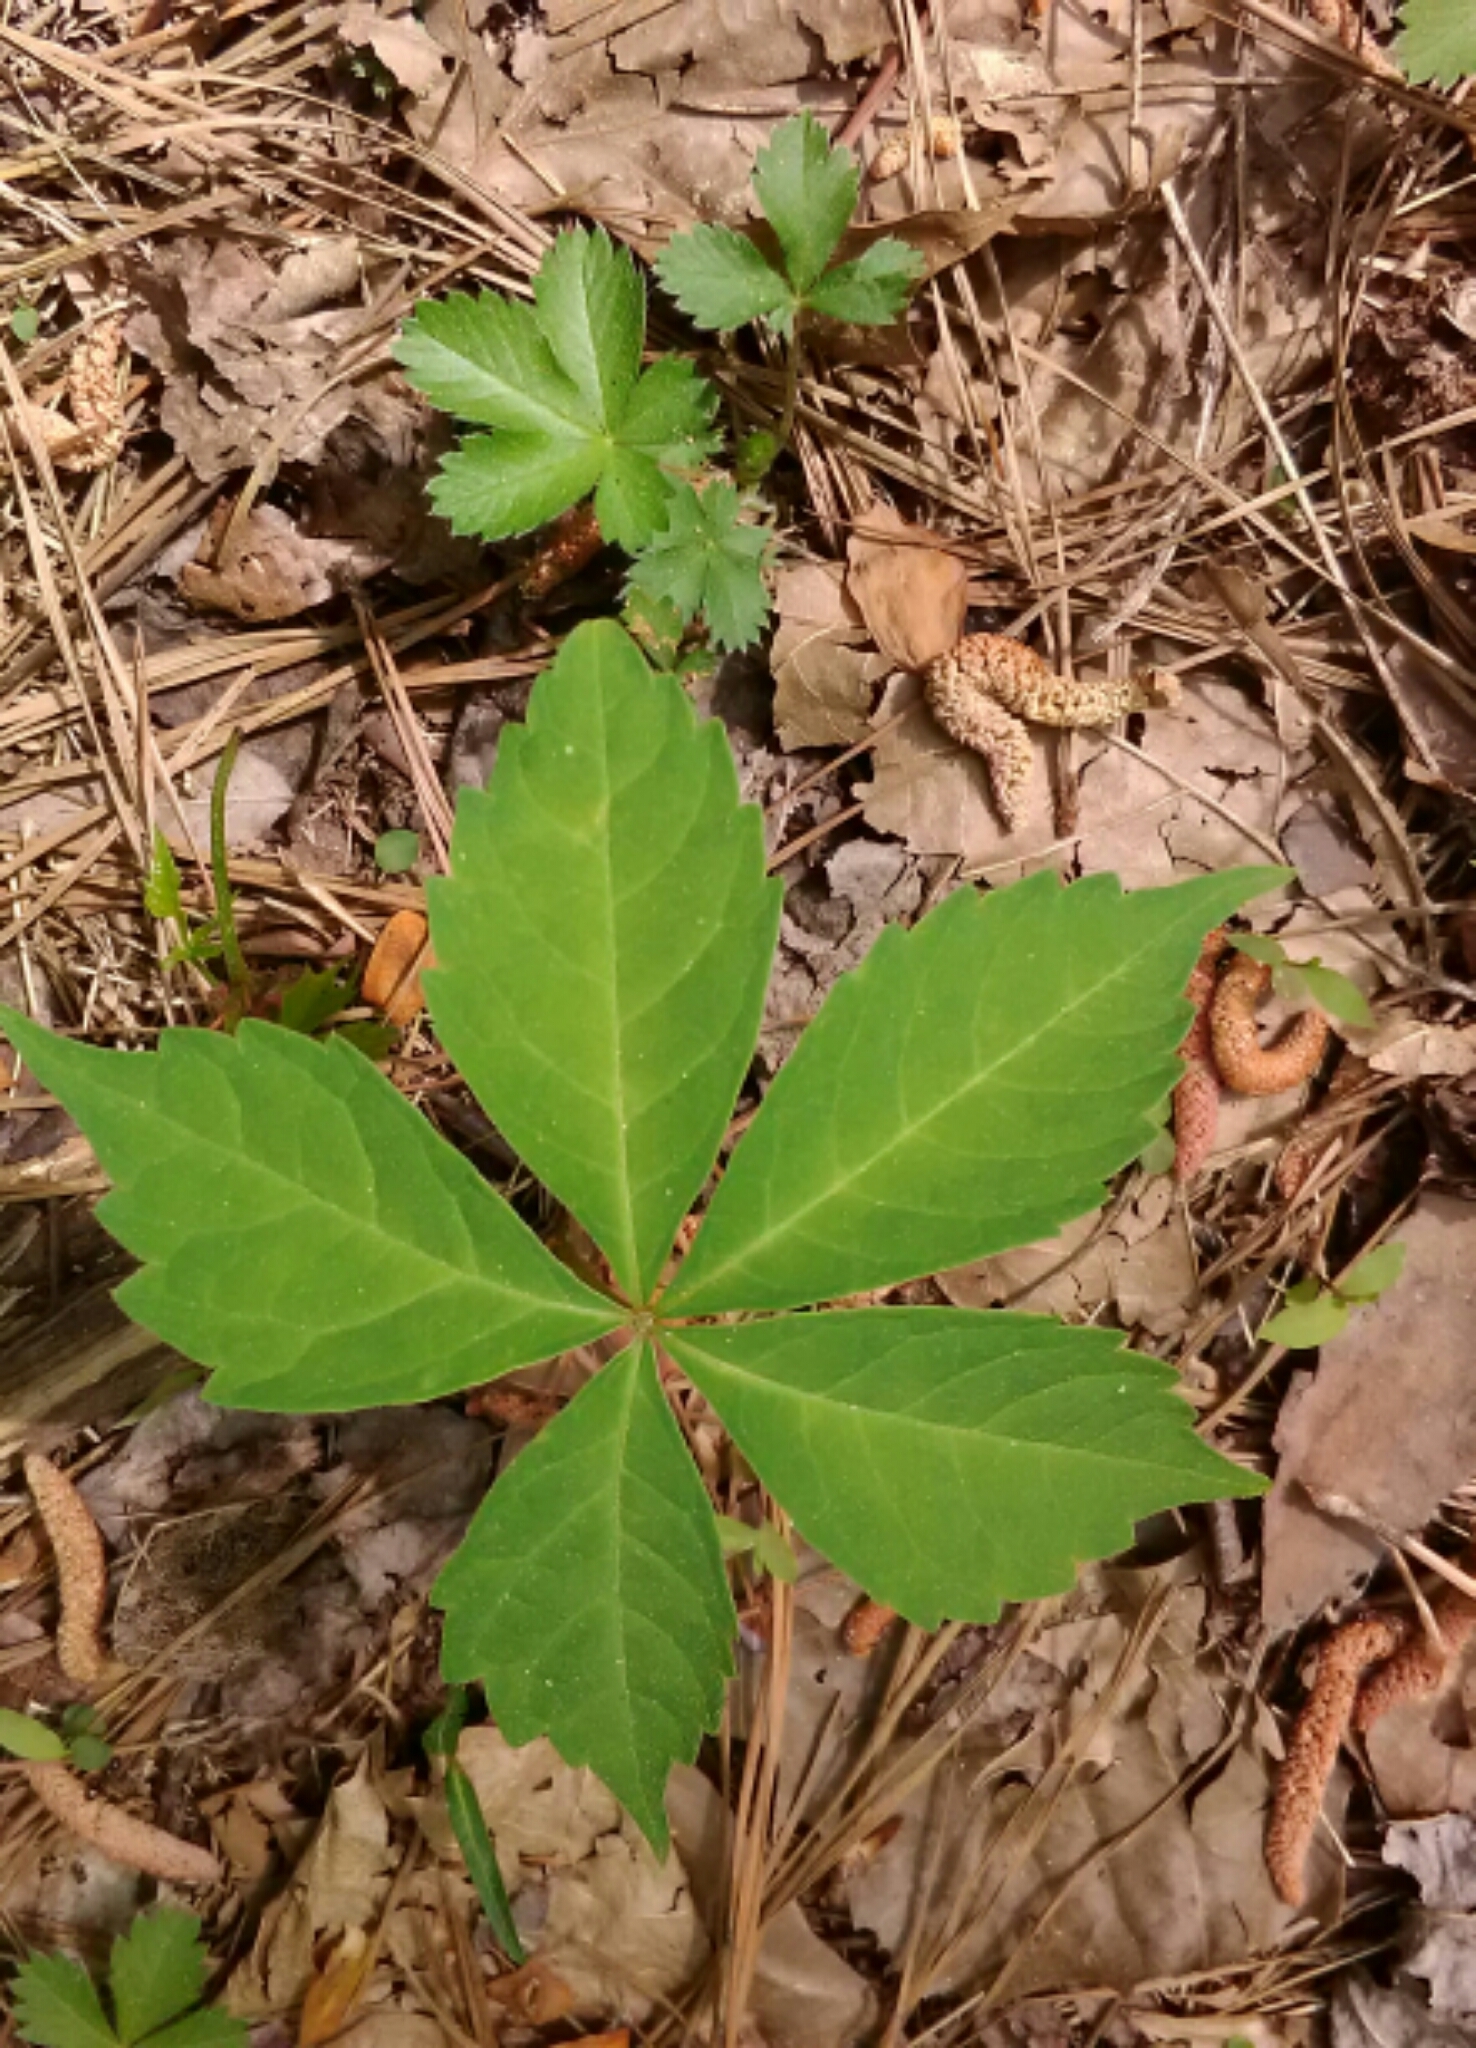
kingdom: Plantae
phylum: Tracheophyta
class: Magnoliopsida
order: Vitales
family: Vitaceae
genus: Parthenocissus
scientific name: Parthenocissus quinquefolia
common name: Virginia-creeper
